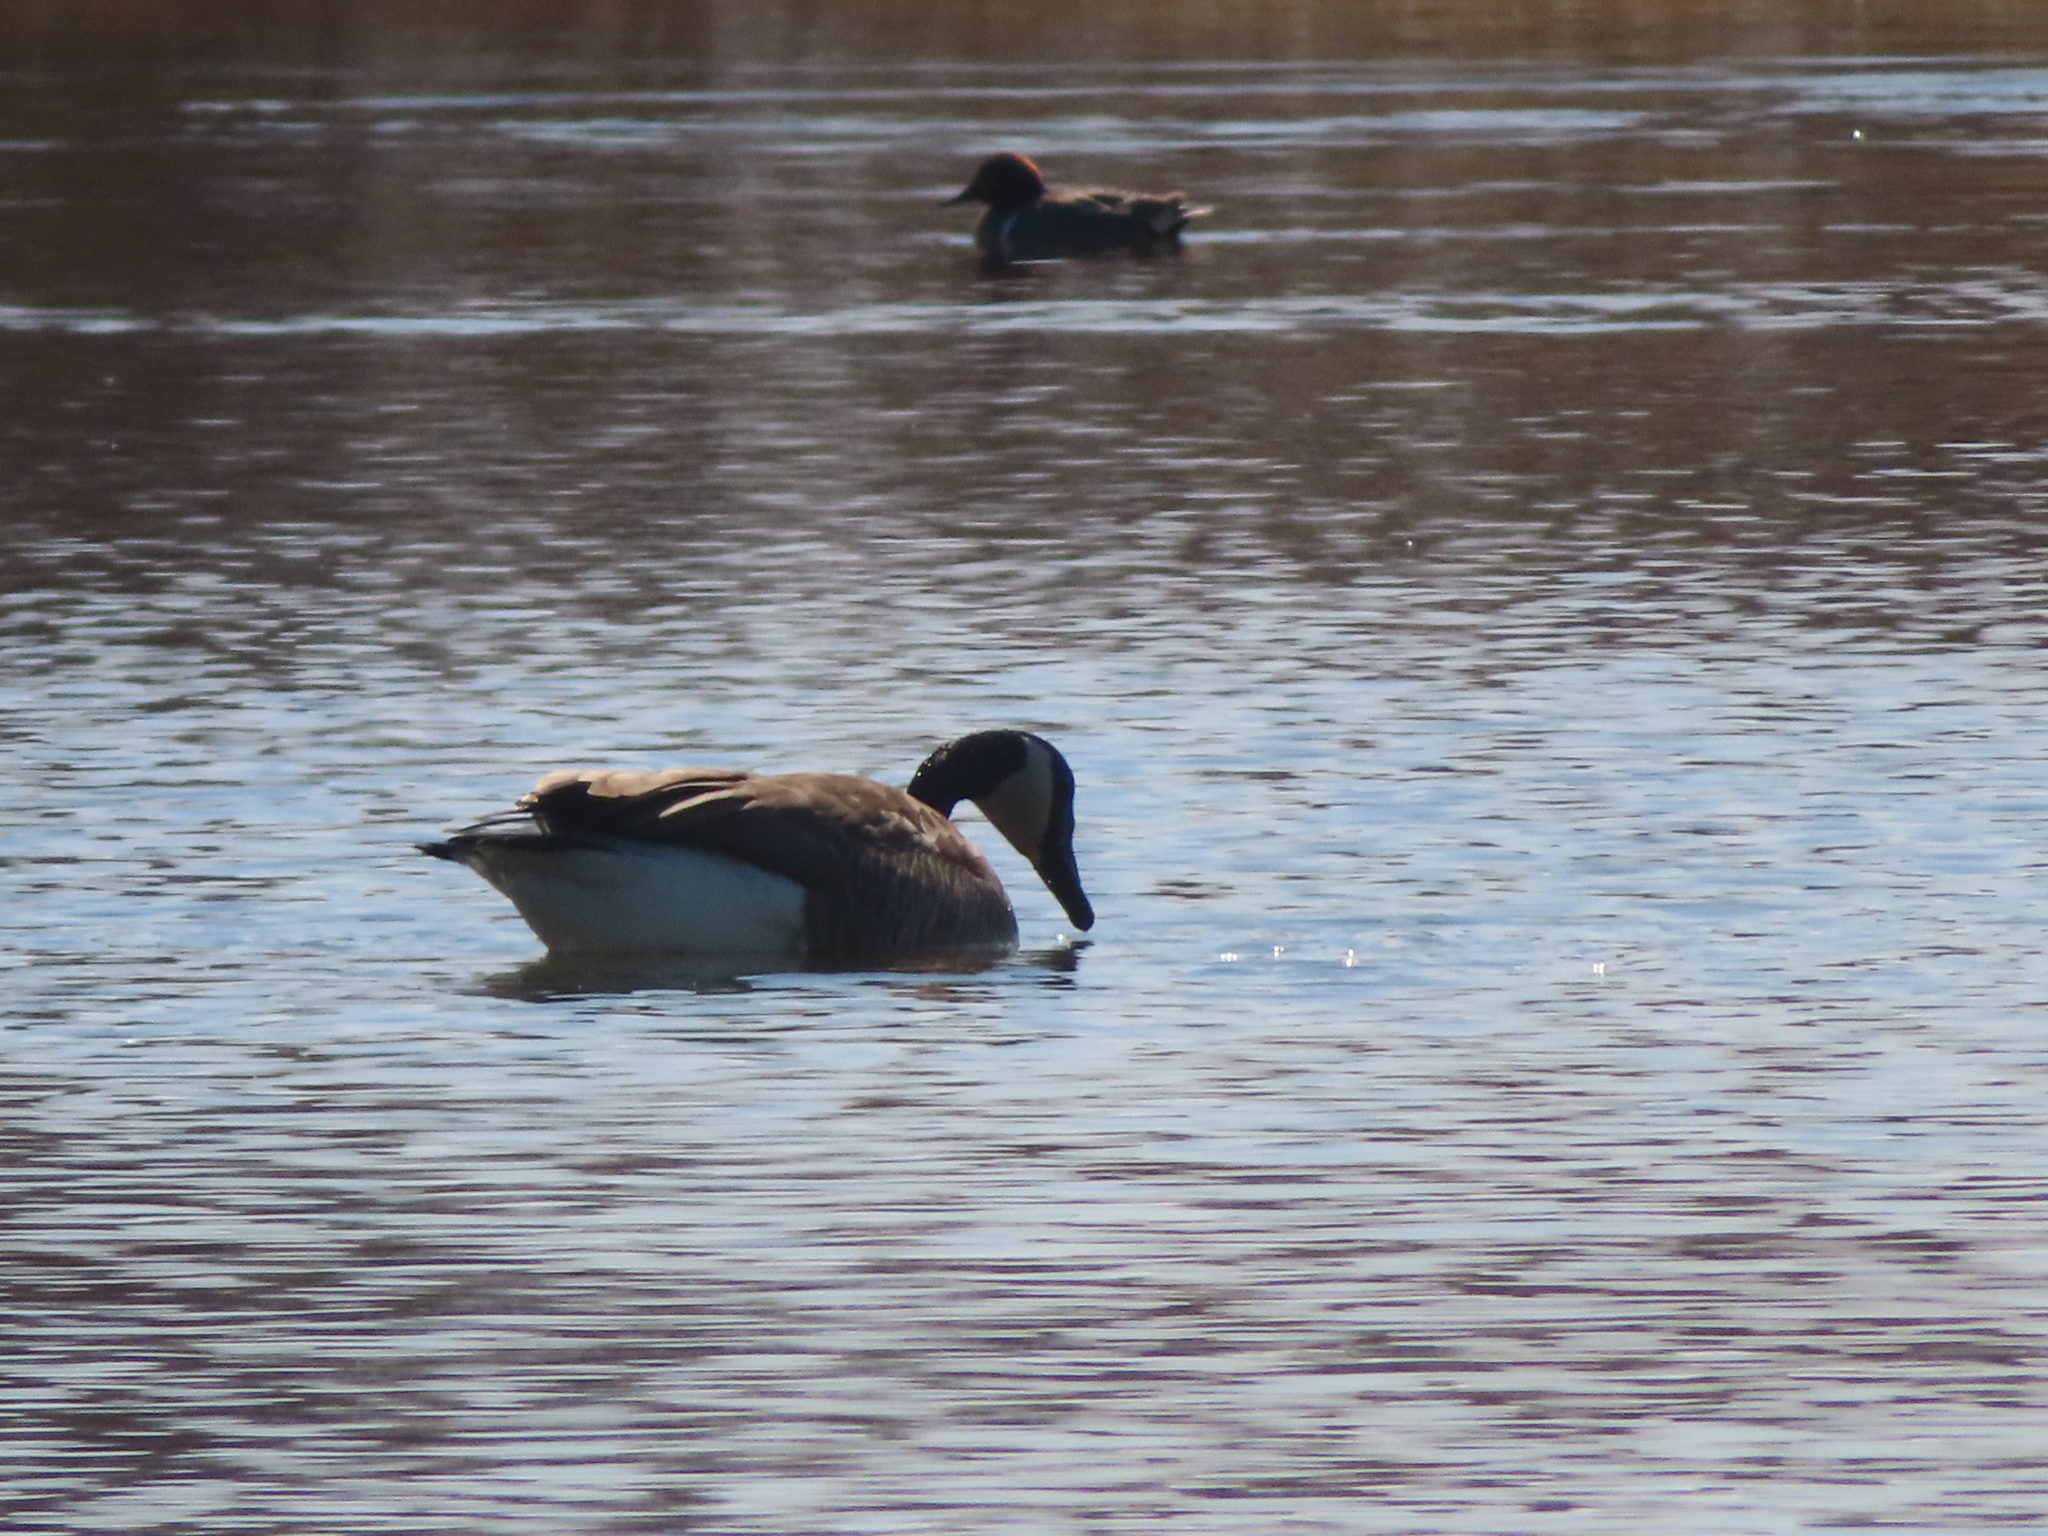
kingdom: Animalia
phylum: Chordata
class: Aves
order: Anseriformes
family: Anatidae
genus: Branta
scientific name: Branta canadensis
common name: Canada goose
